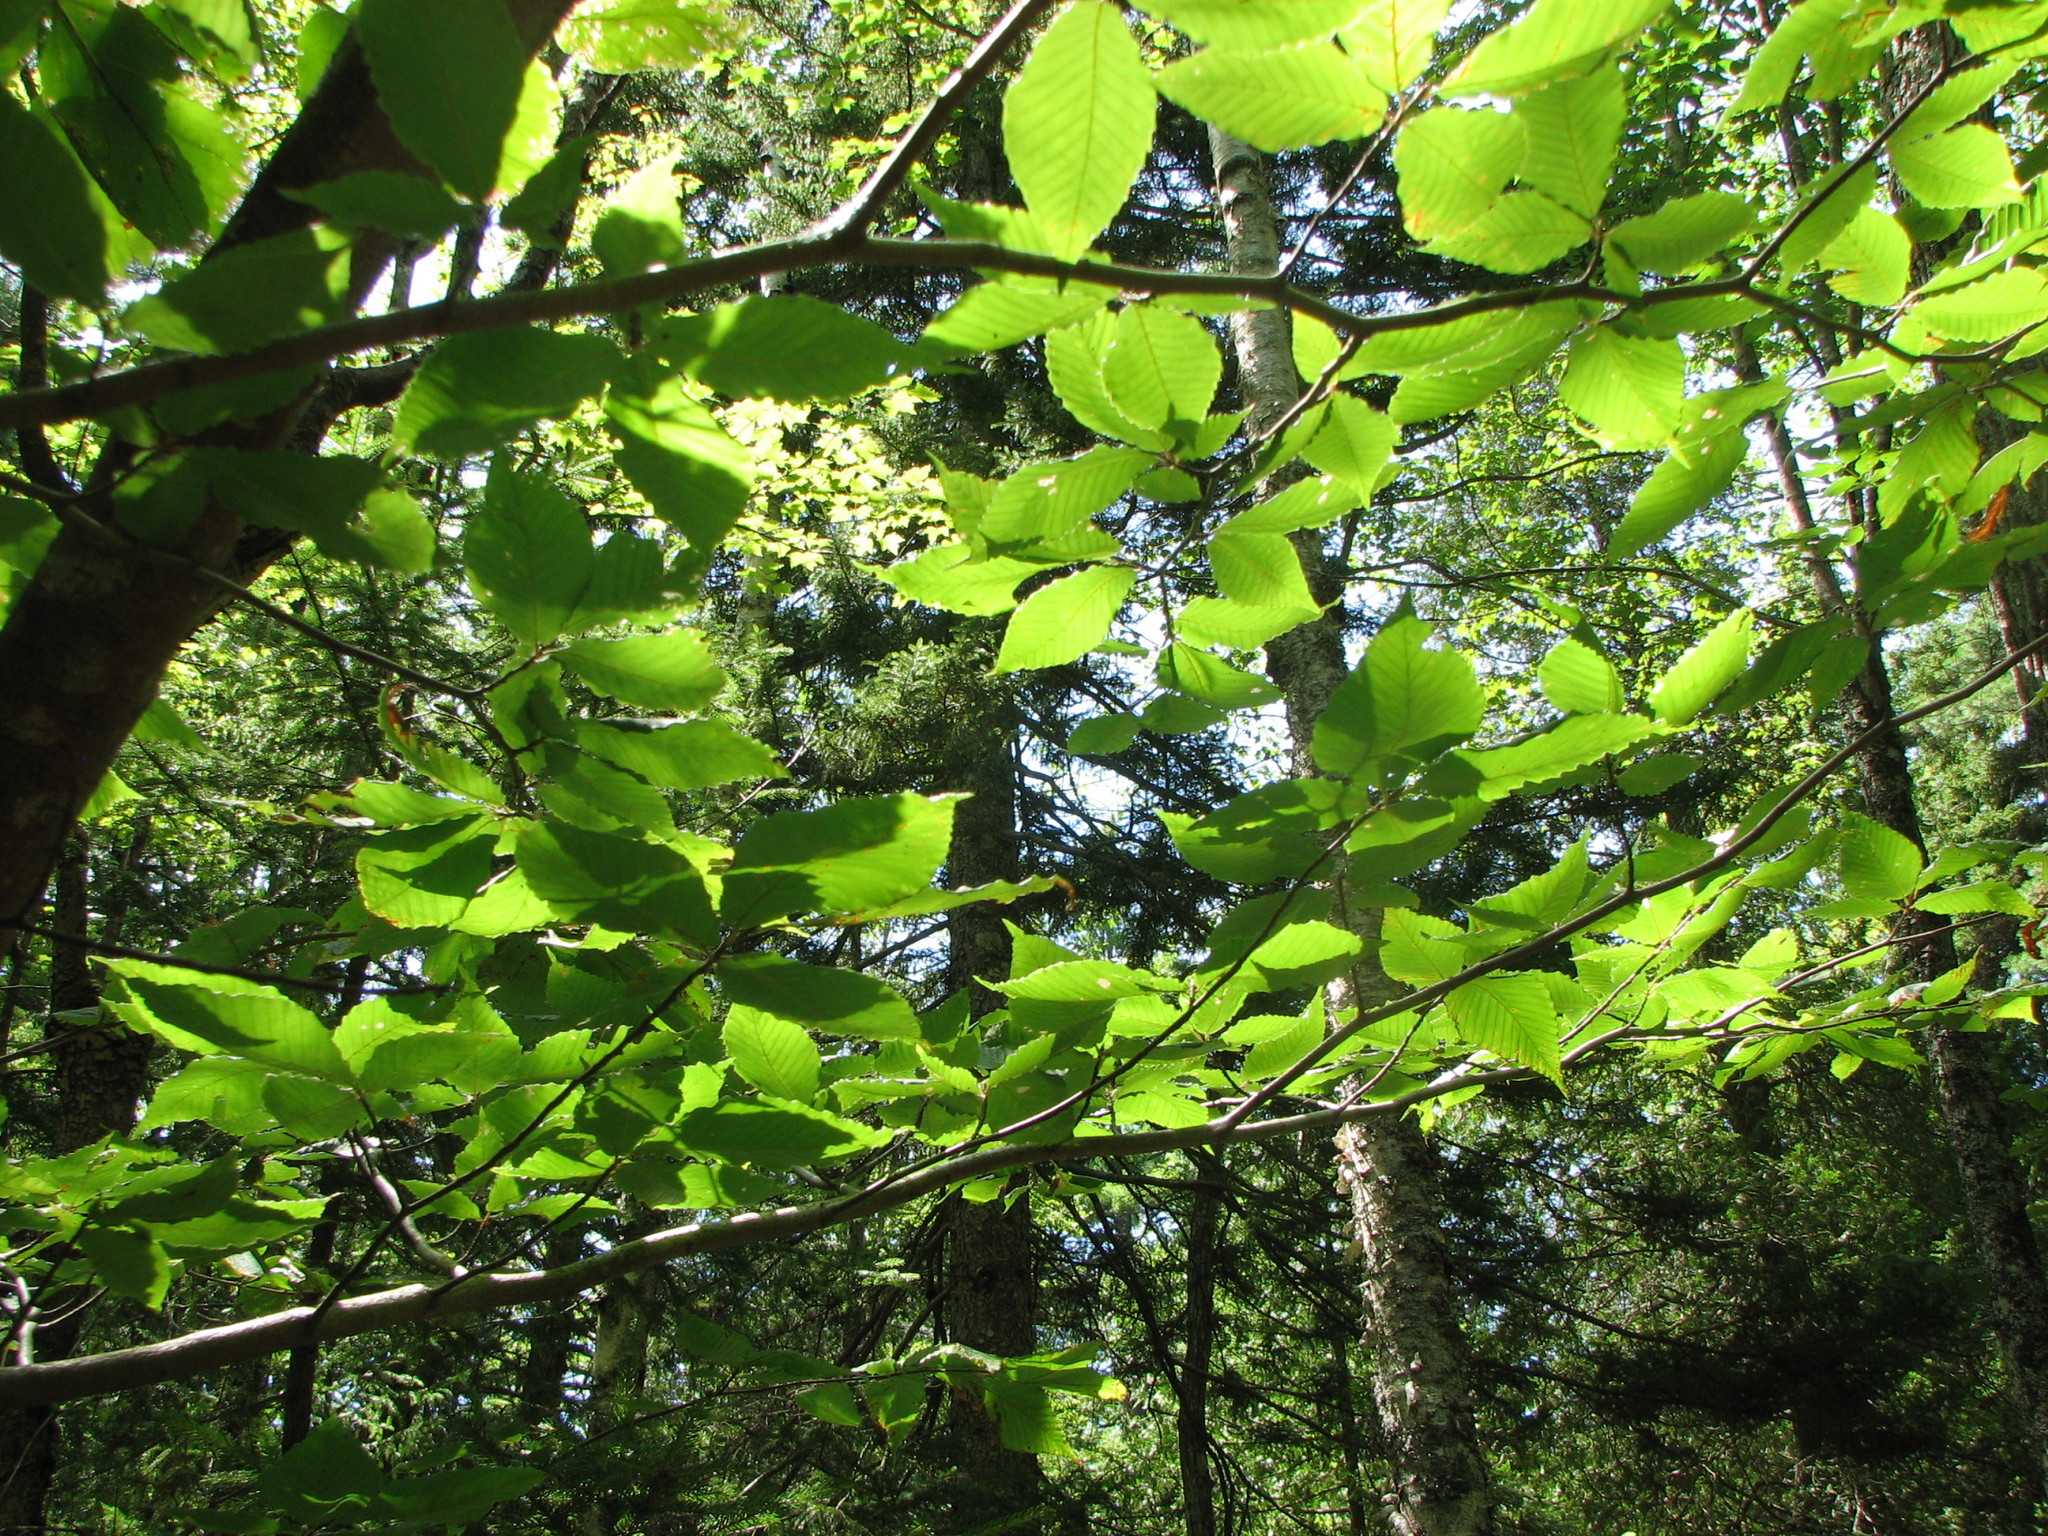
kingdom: Plantae
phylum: Tracheophyta
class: Magnoliopsida
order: Fagales
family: Fagaceae
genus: Fagus
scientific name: Fagus grandifolia
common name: American beech
